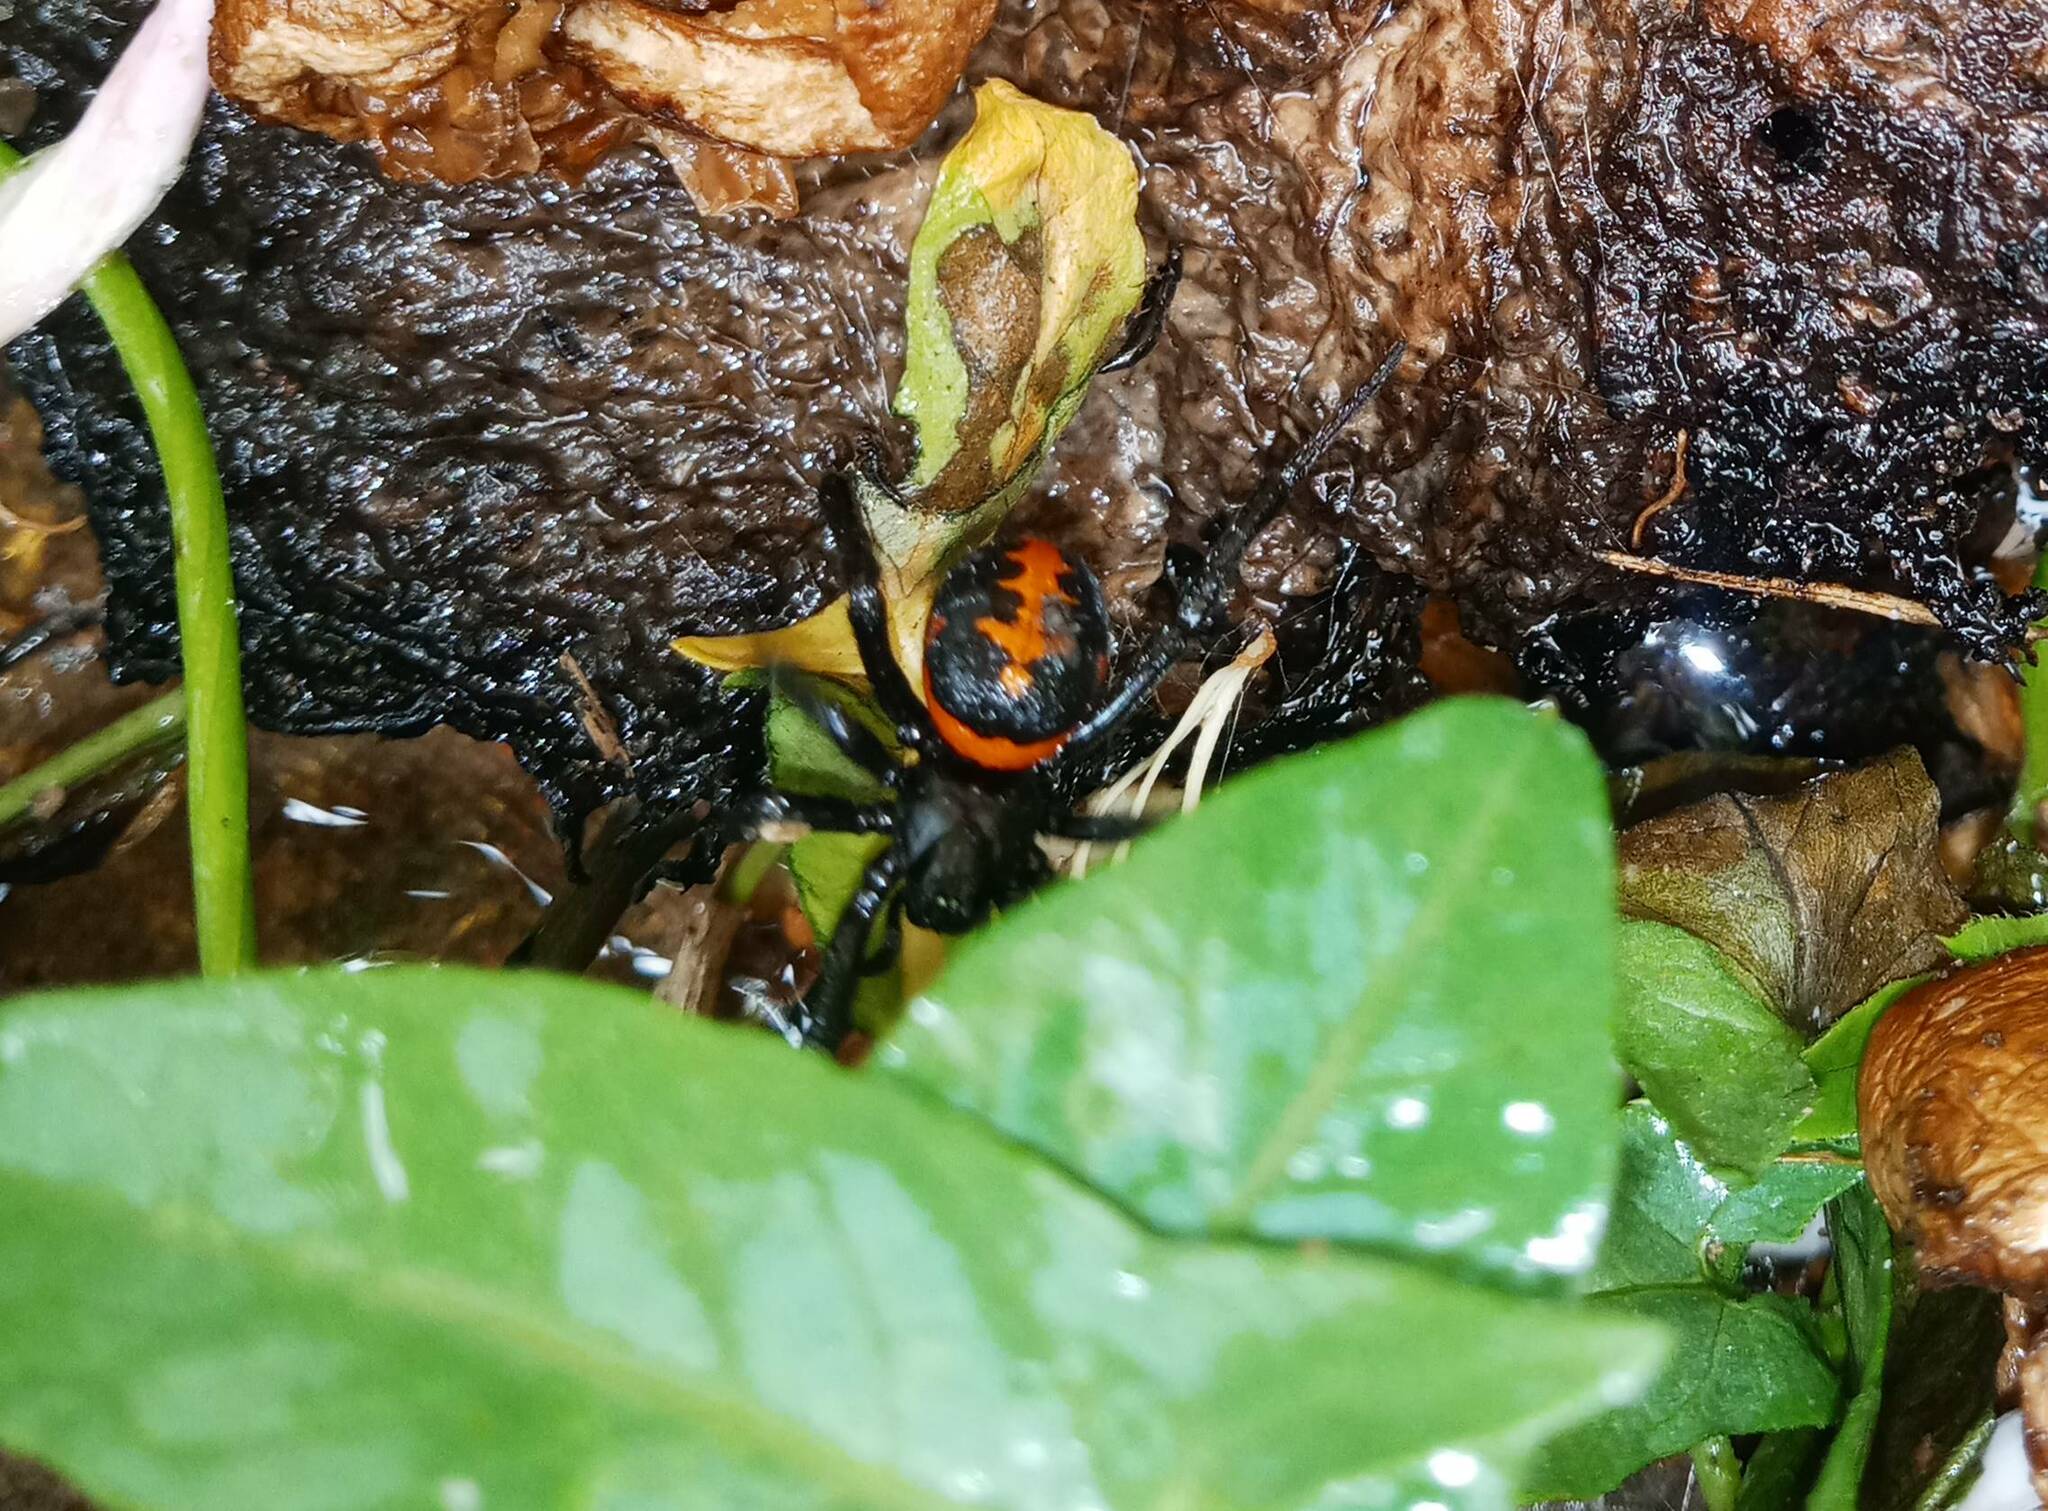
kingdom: Animalia
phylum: Arthropoda
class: Arachnida
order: Araneae
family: Theridiidae
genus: Steatoda
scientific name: Steatoda paykulliana
